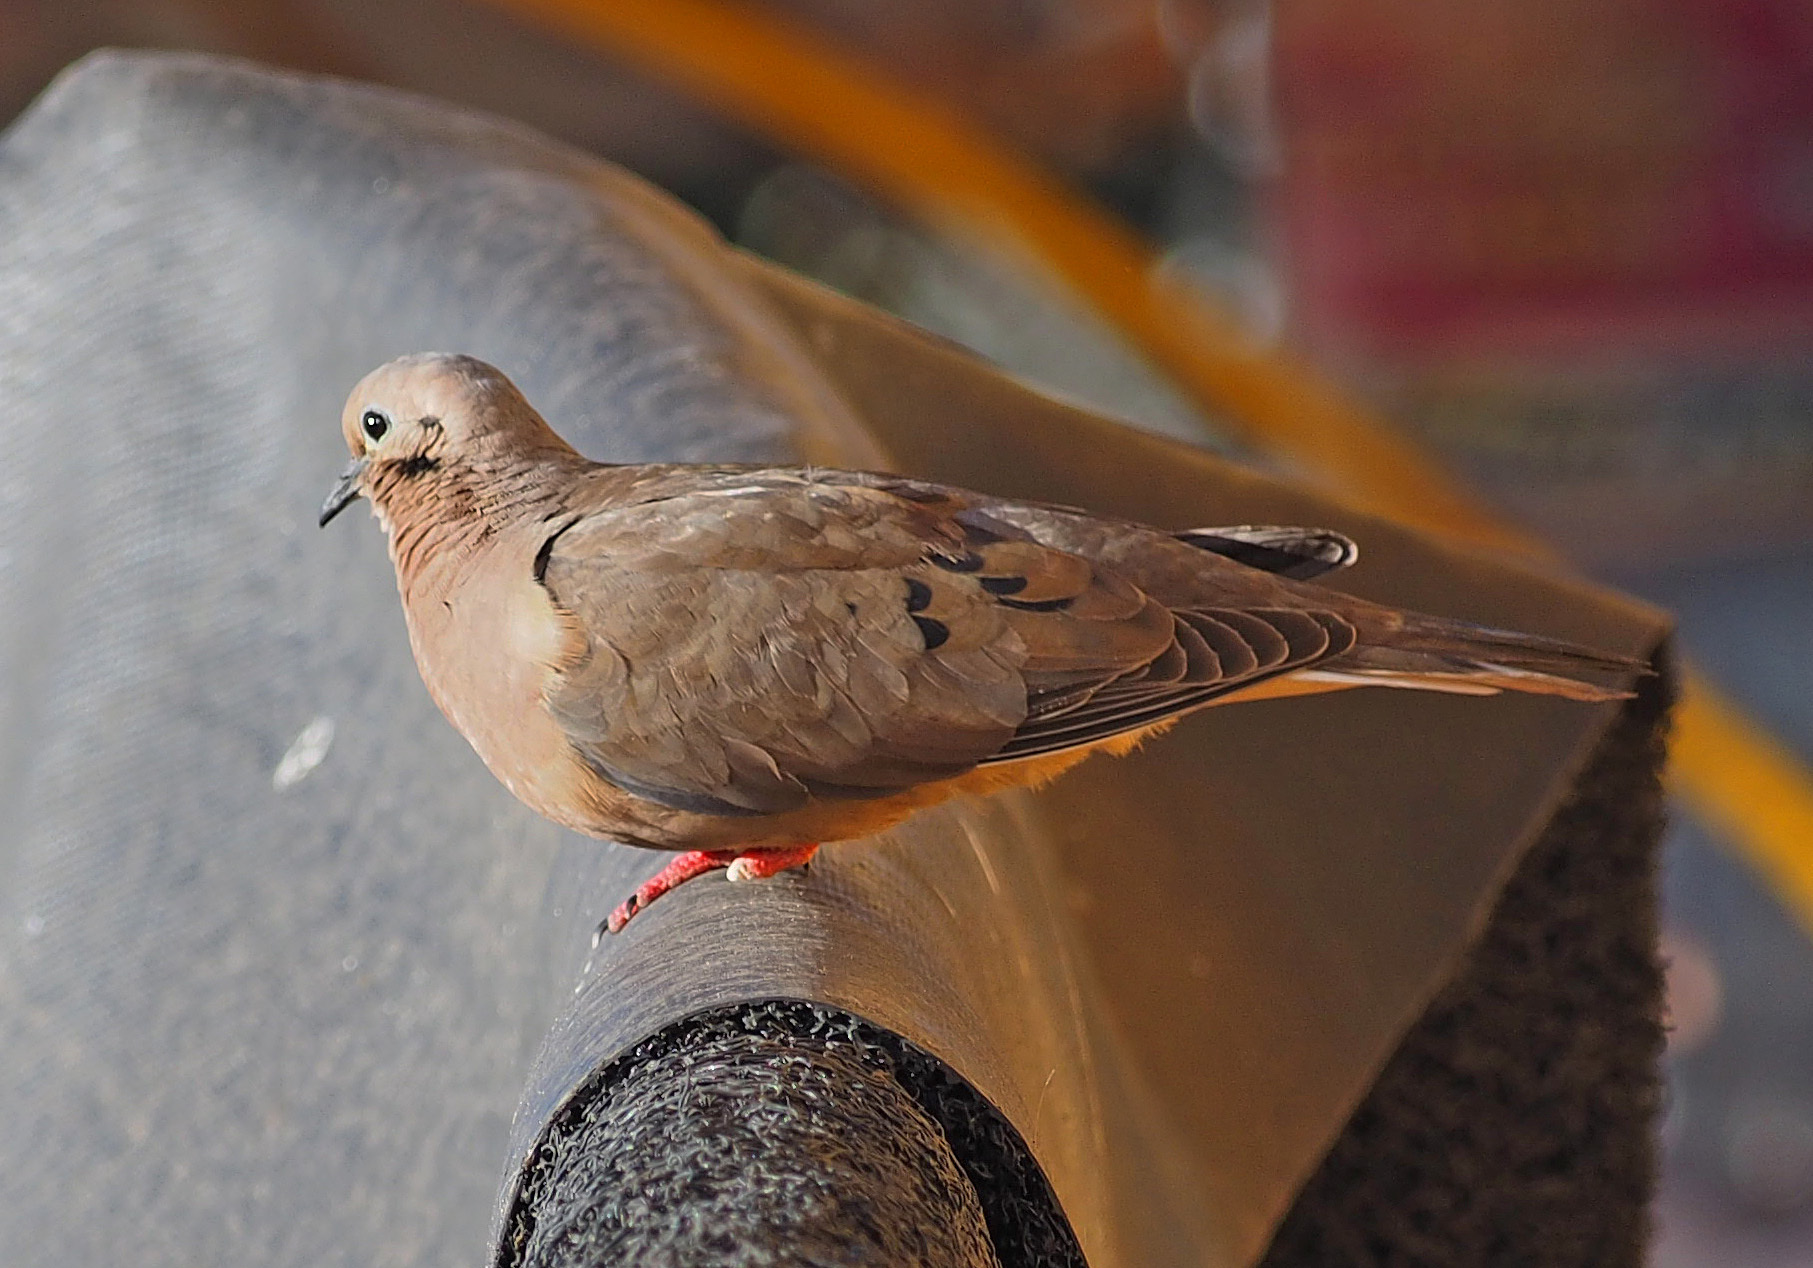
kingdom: Animalia
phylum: Chordata
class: Aves
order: Columbiformes
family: Columbidae
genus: Zenaida
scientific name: Zenaida auriculata
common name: Eared dove
